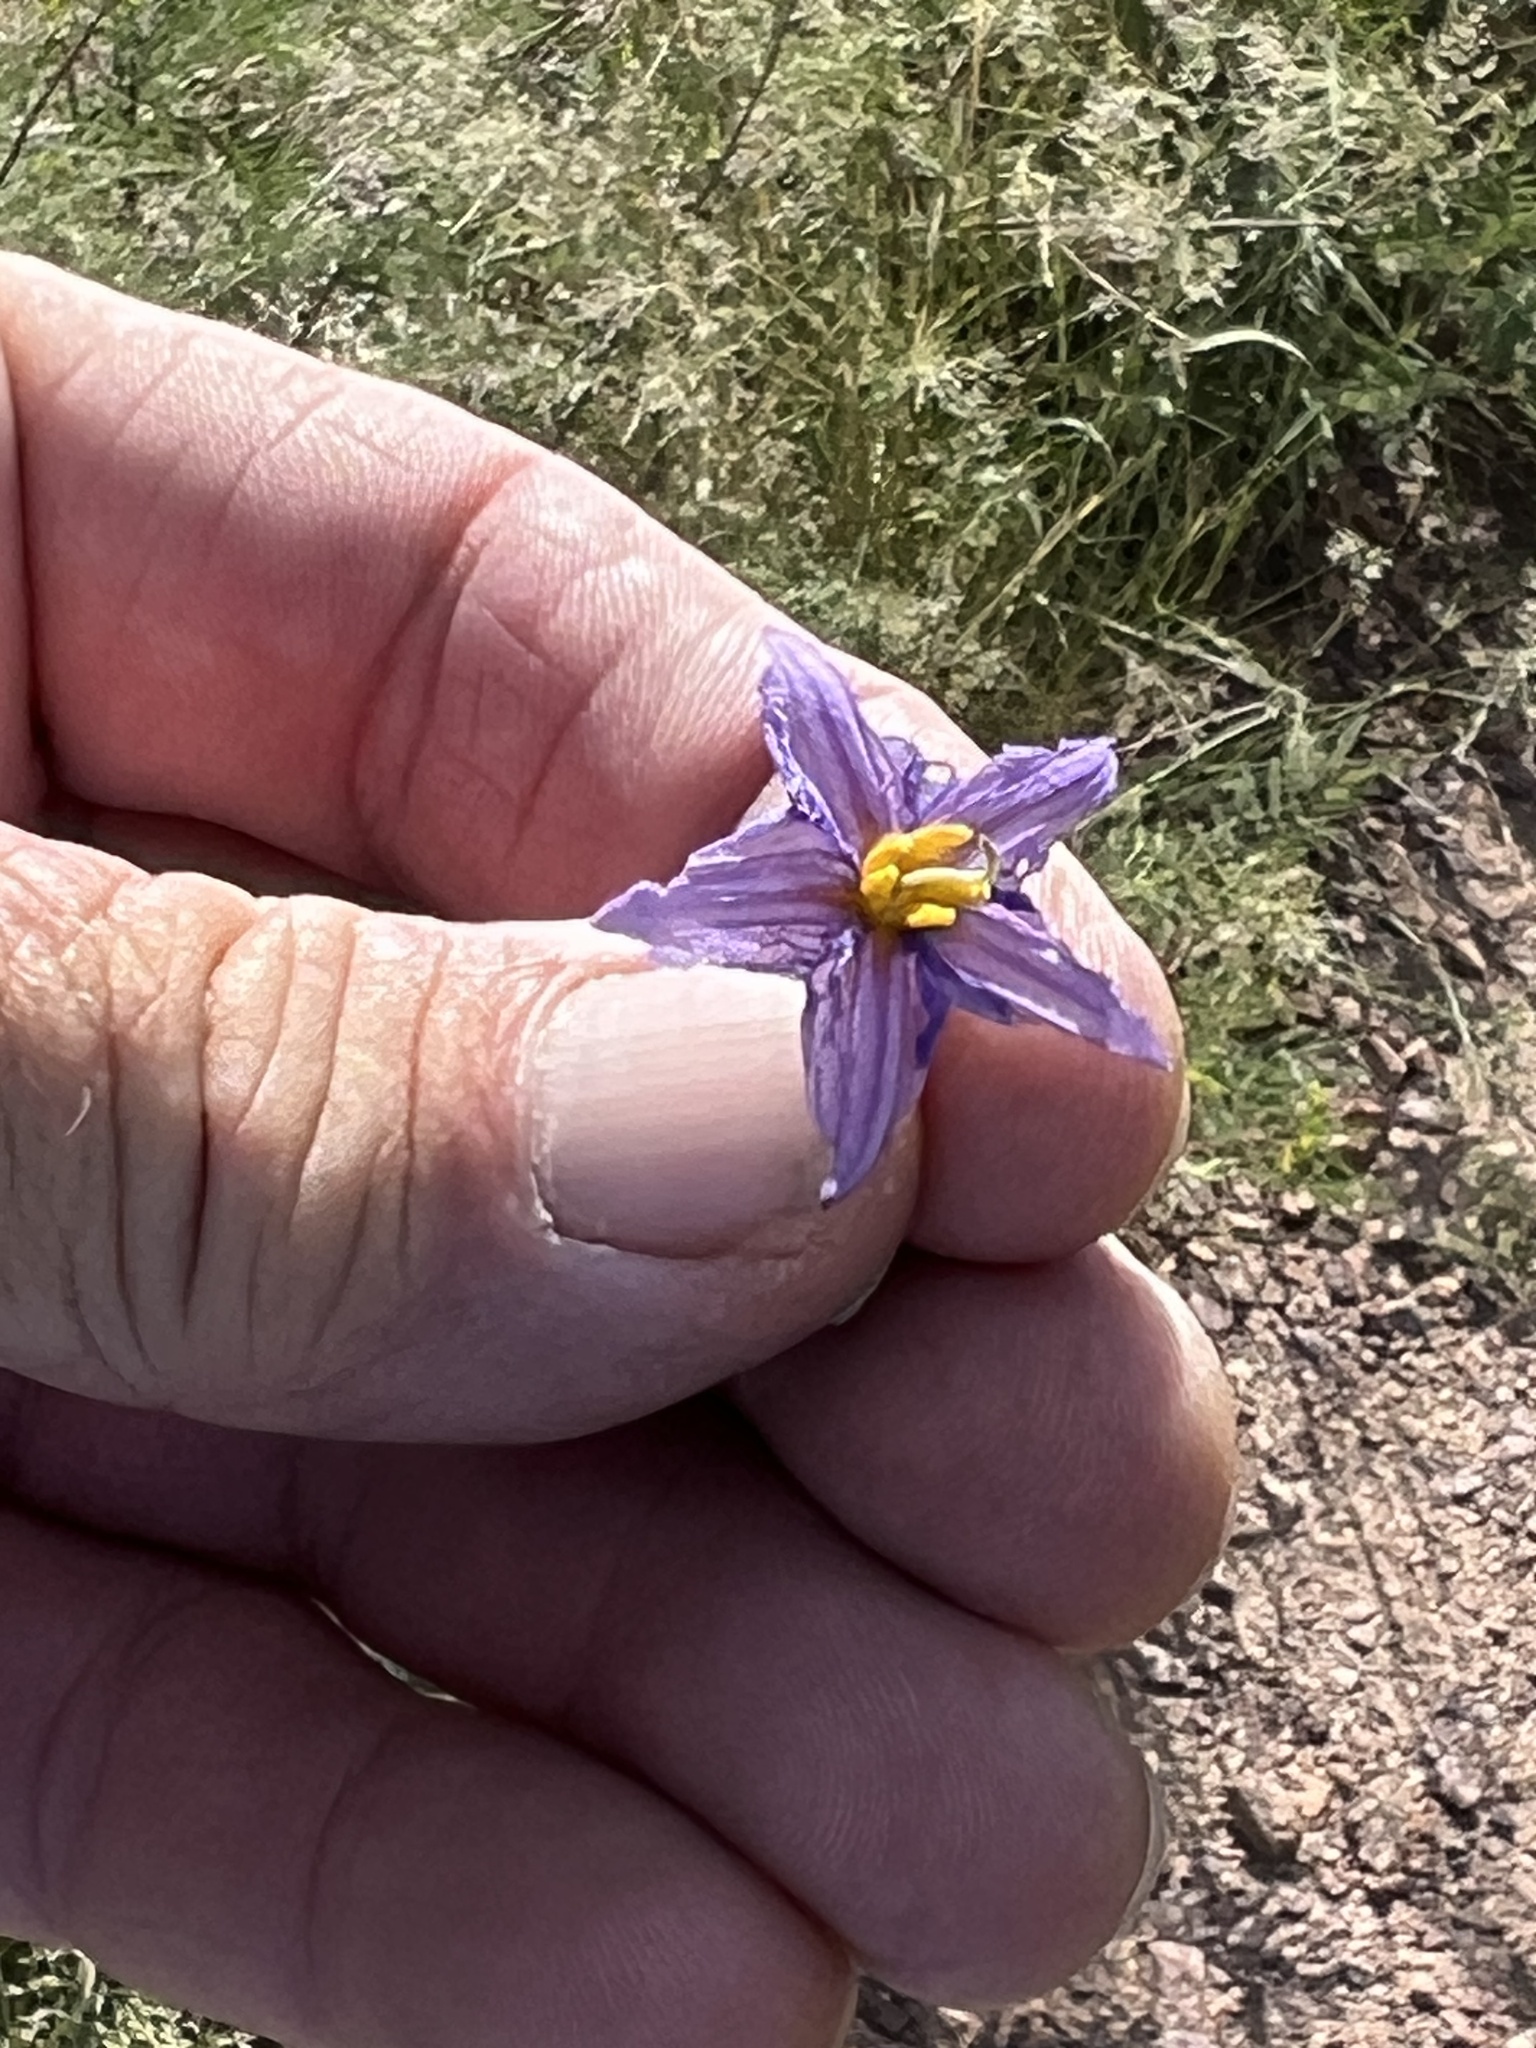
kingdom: Plantae
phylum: Tracheophyta
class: Magnoliopsida
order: Solanales
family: Solanaceae
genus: Solanum
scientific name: Solanum elaeagnifolium
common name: Silverleaf nightshade
